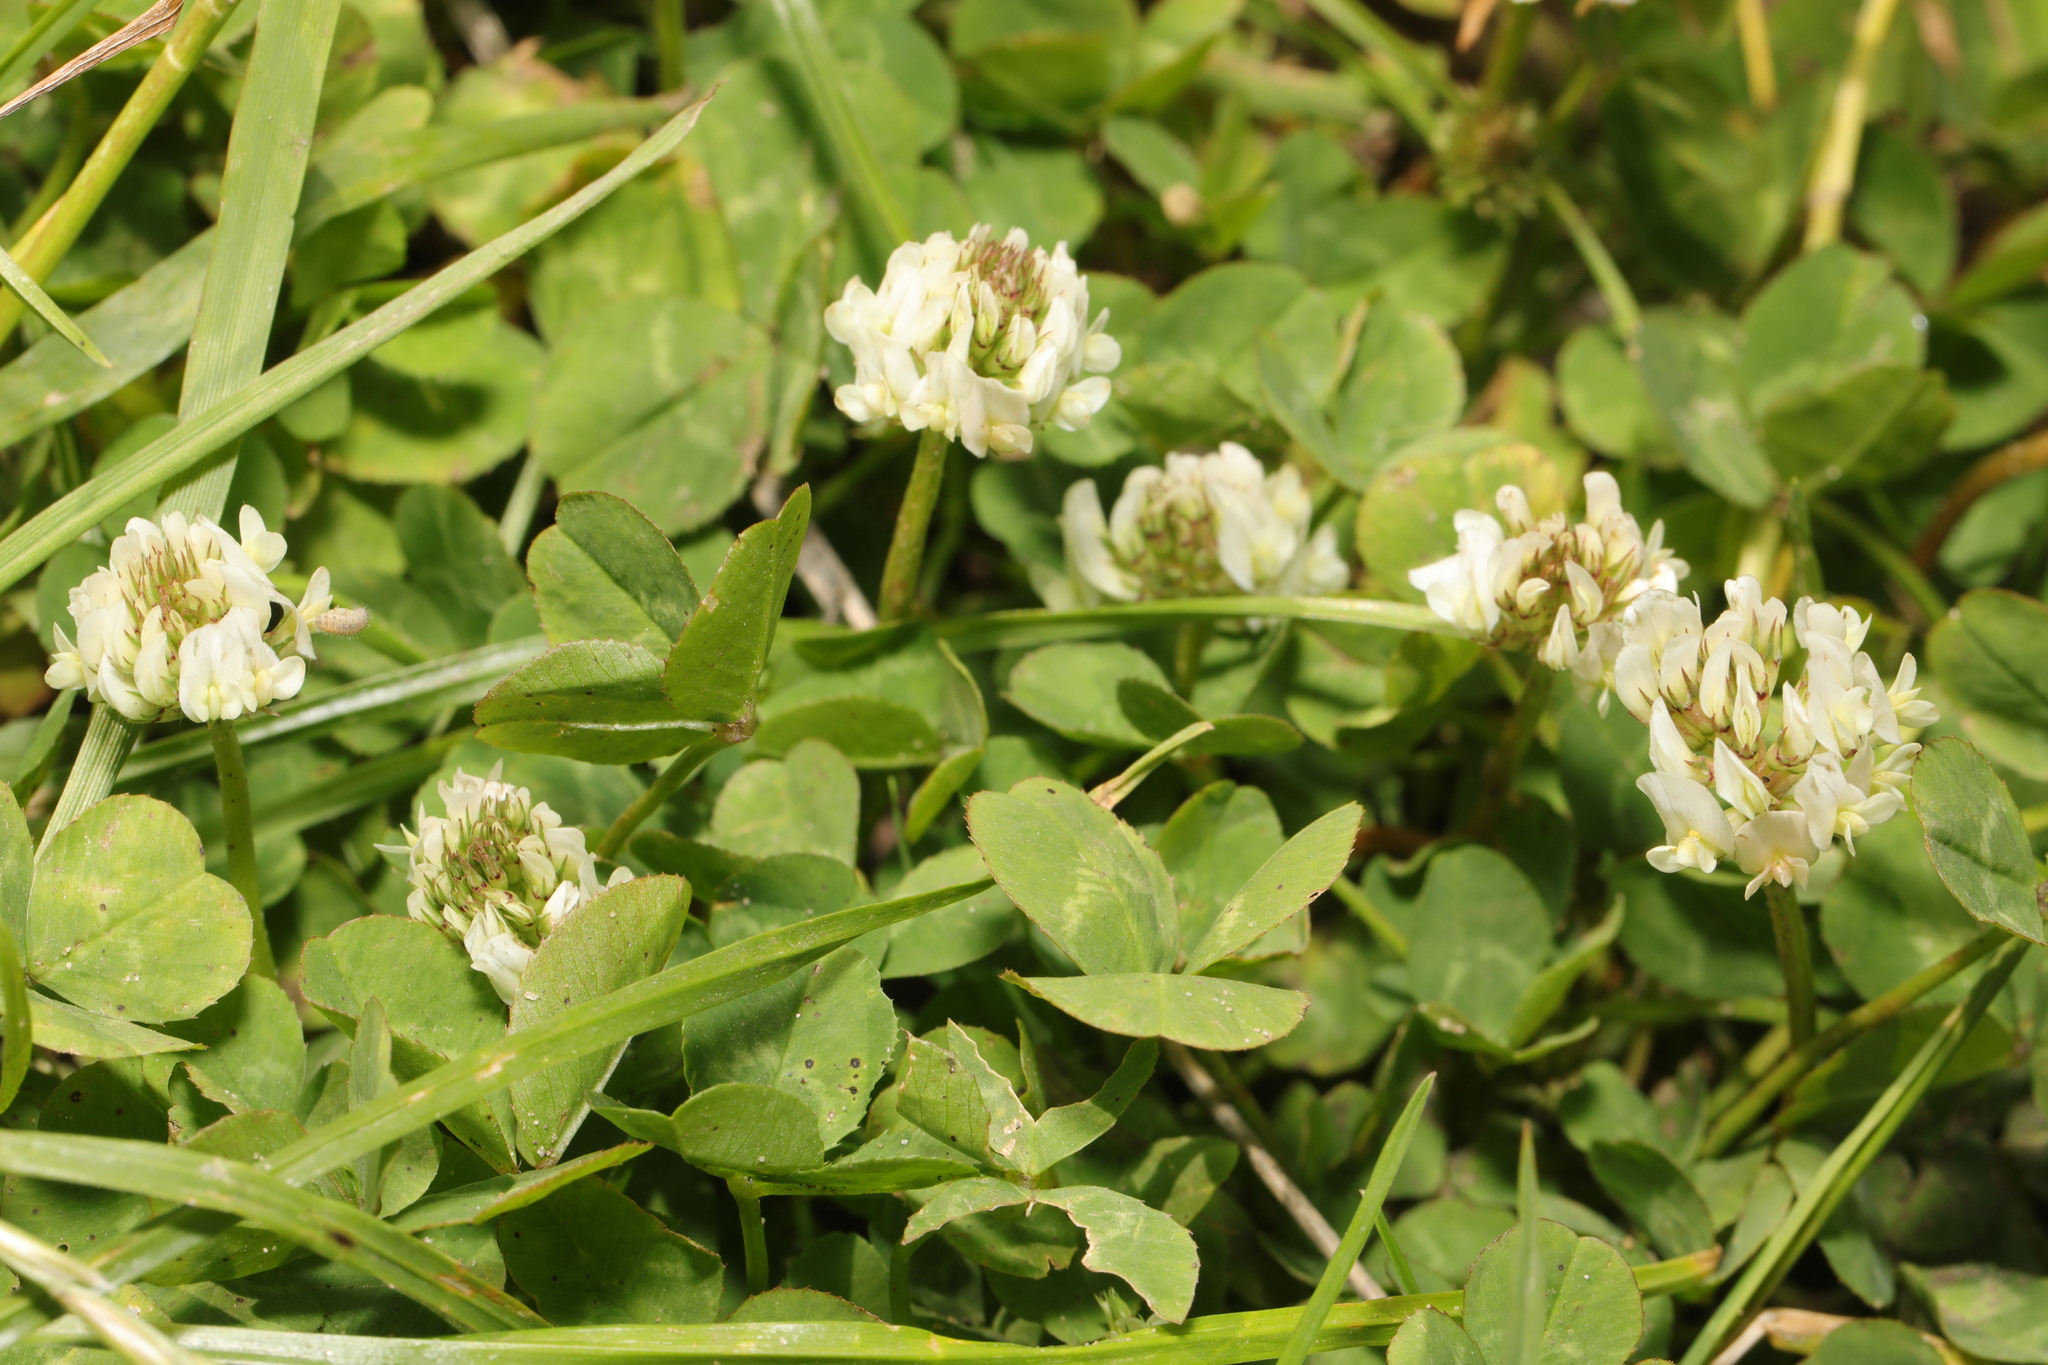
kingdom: Plantae
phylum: Tracheophyta
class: Magnoliopsida
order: Fabales
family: Fabaceae
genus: Trifolium
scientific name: Trifolium repens
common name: White clover
